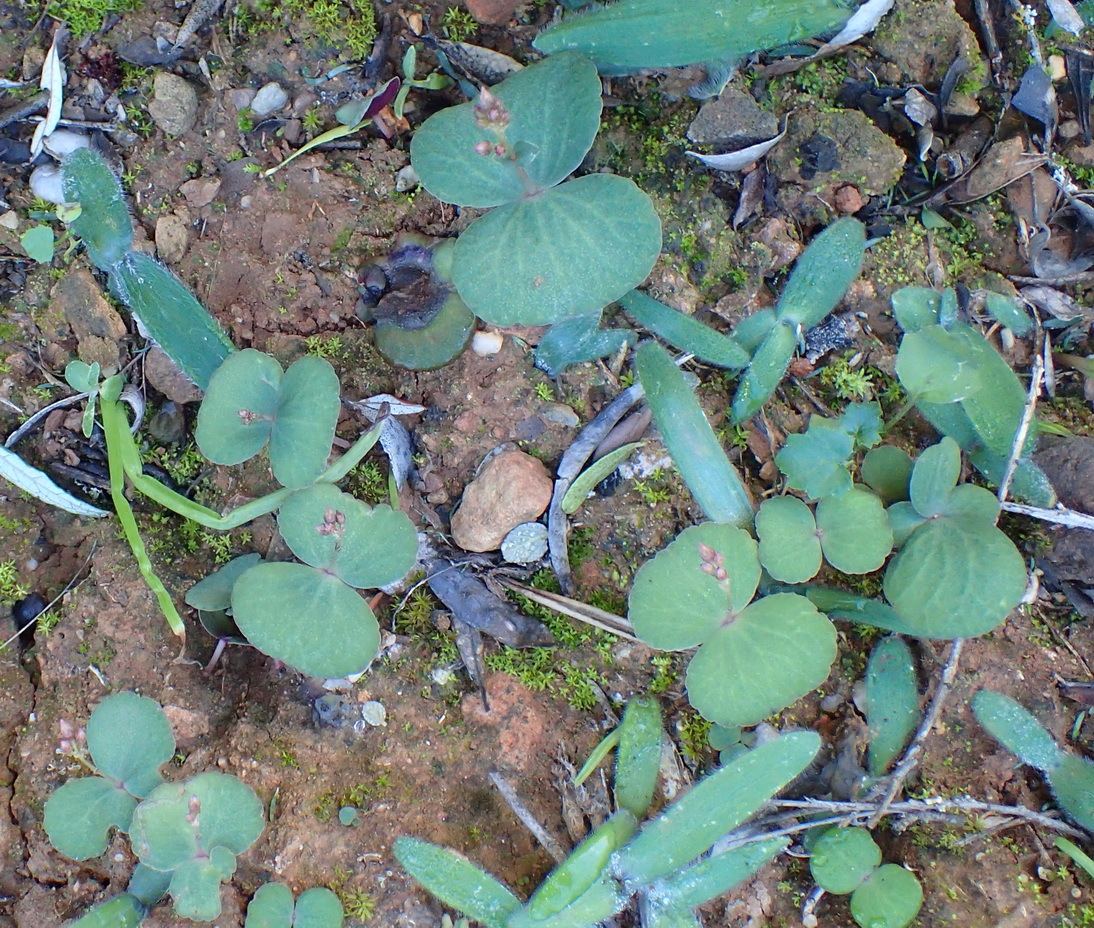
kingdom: Plantae
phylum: Tracheophyta
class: Magnoliopsida
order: Saxifragales
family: Crassulaceae
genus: Crassula
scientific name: Crassula umbella
